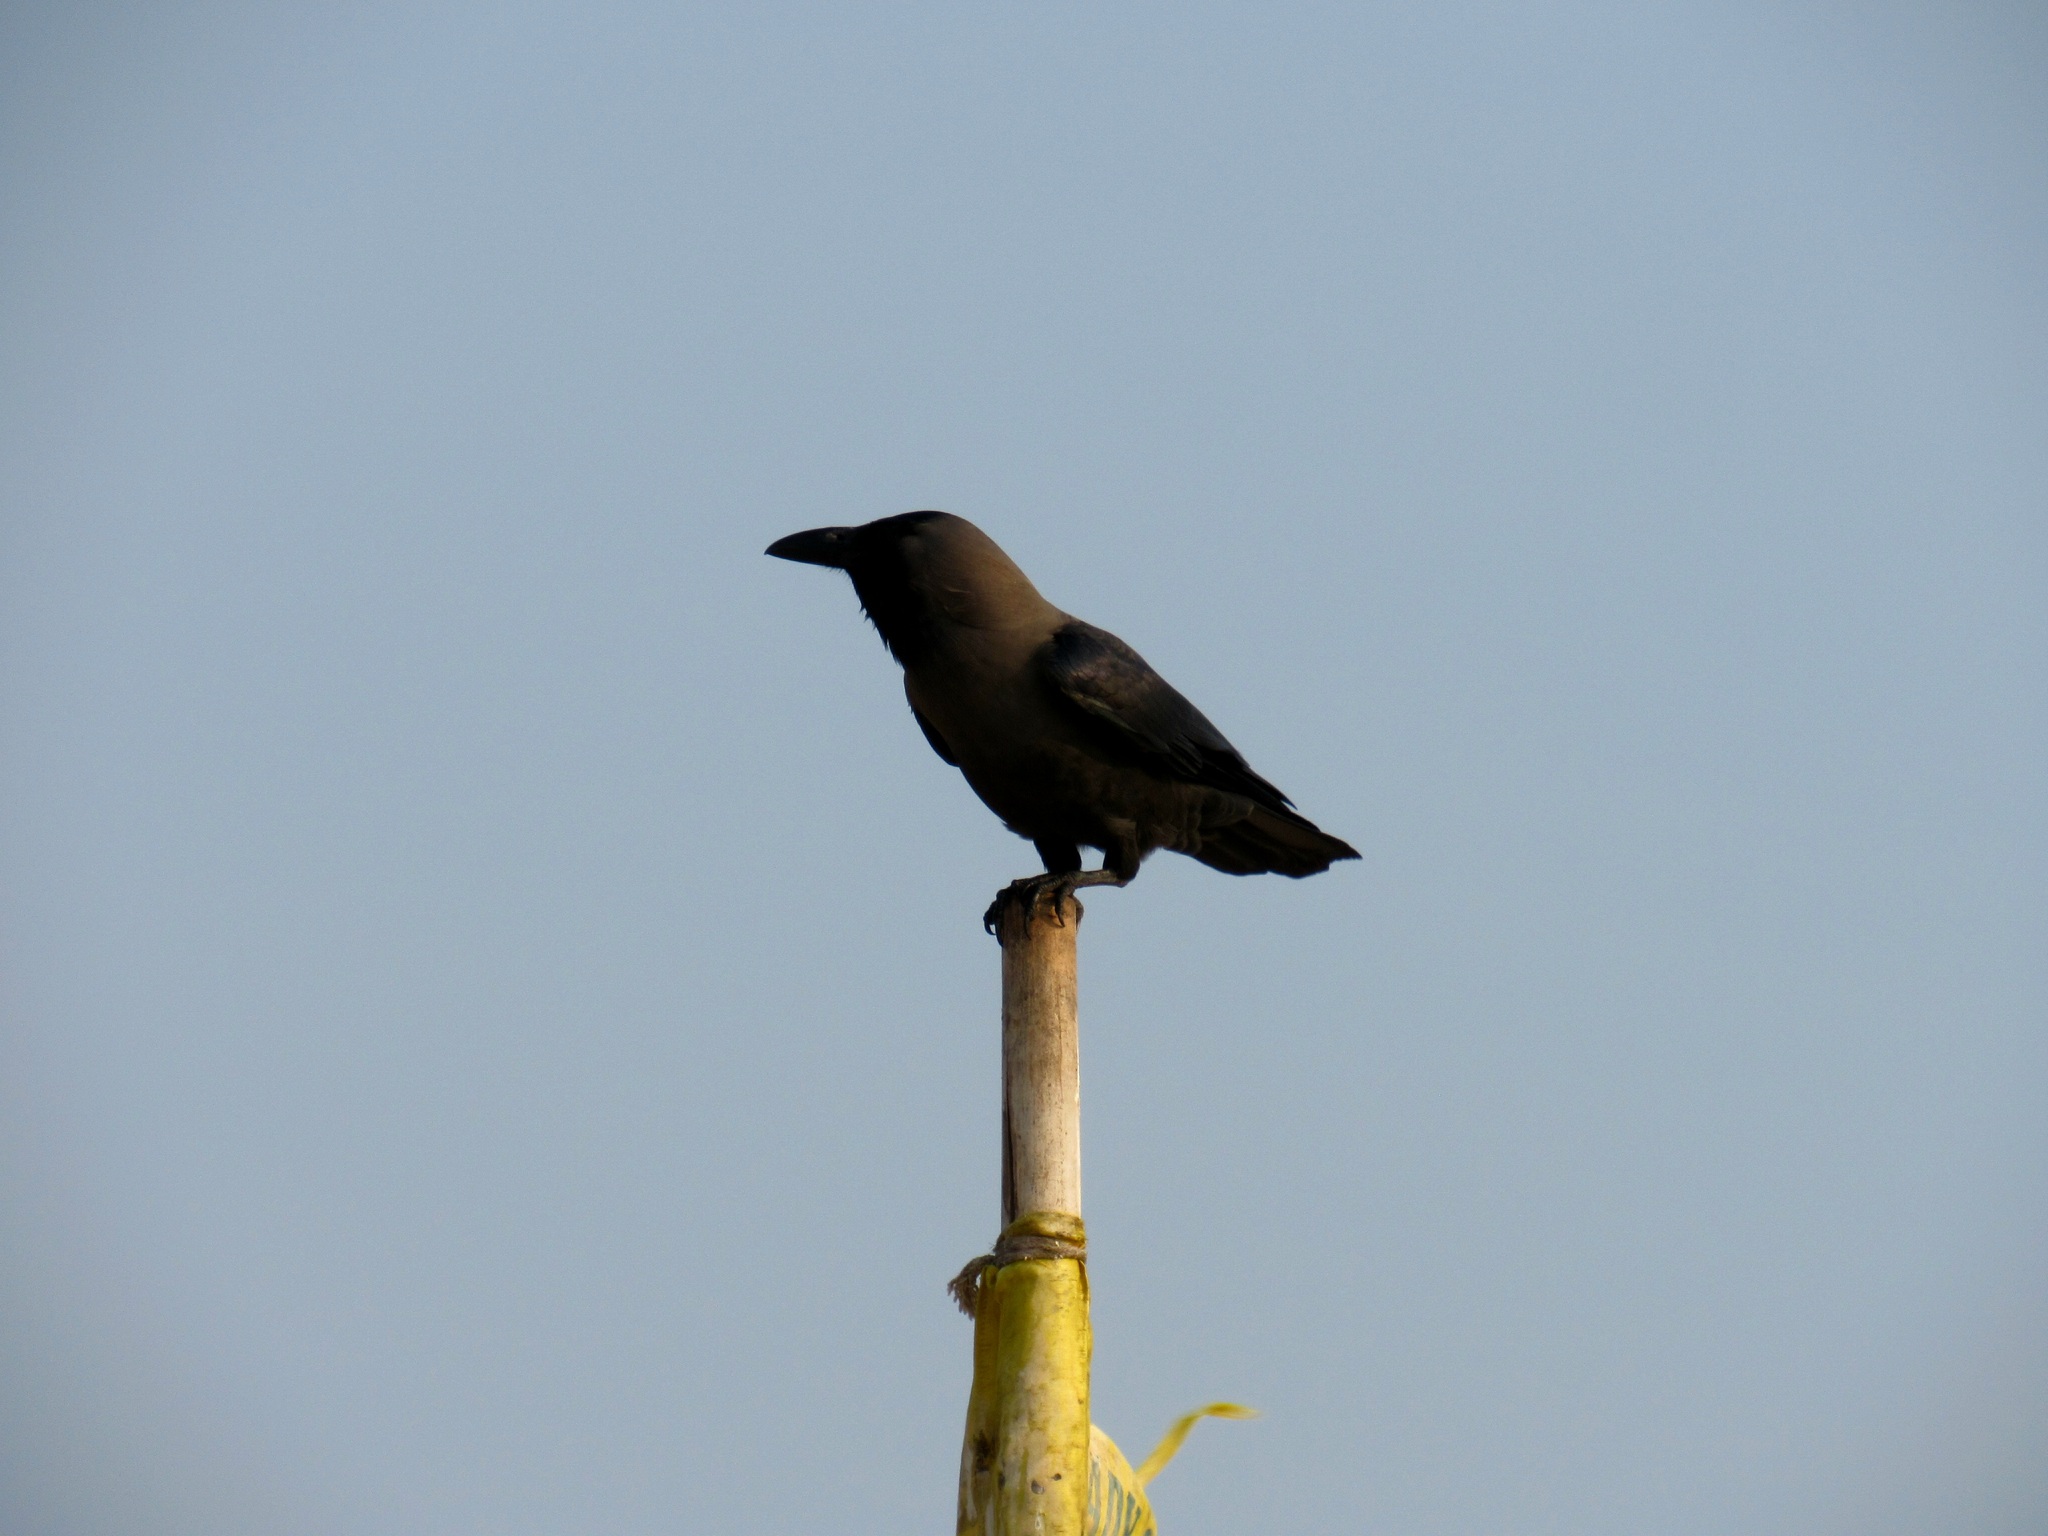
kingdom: Animalia
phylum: Chordata
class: Aves
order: Passeriformes
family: Corvidae
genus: Corvus
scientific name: Corvus splendens
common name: House crow
